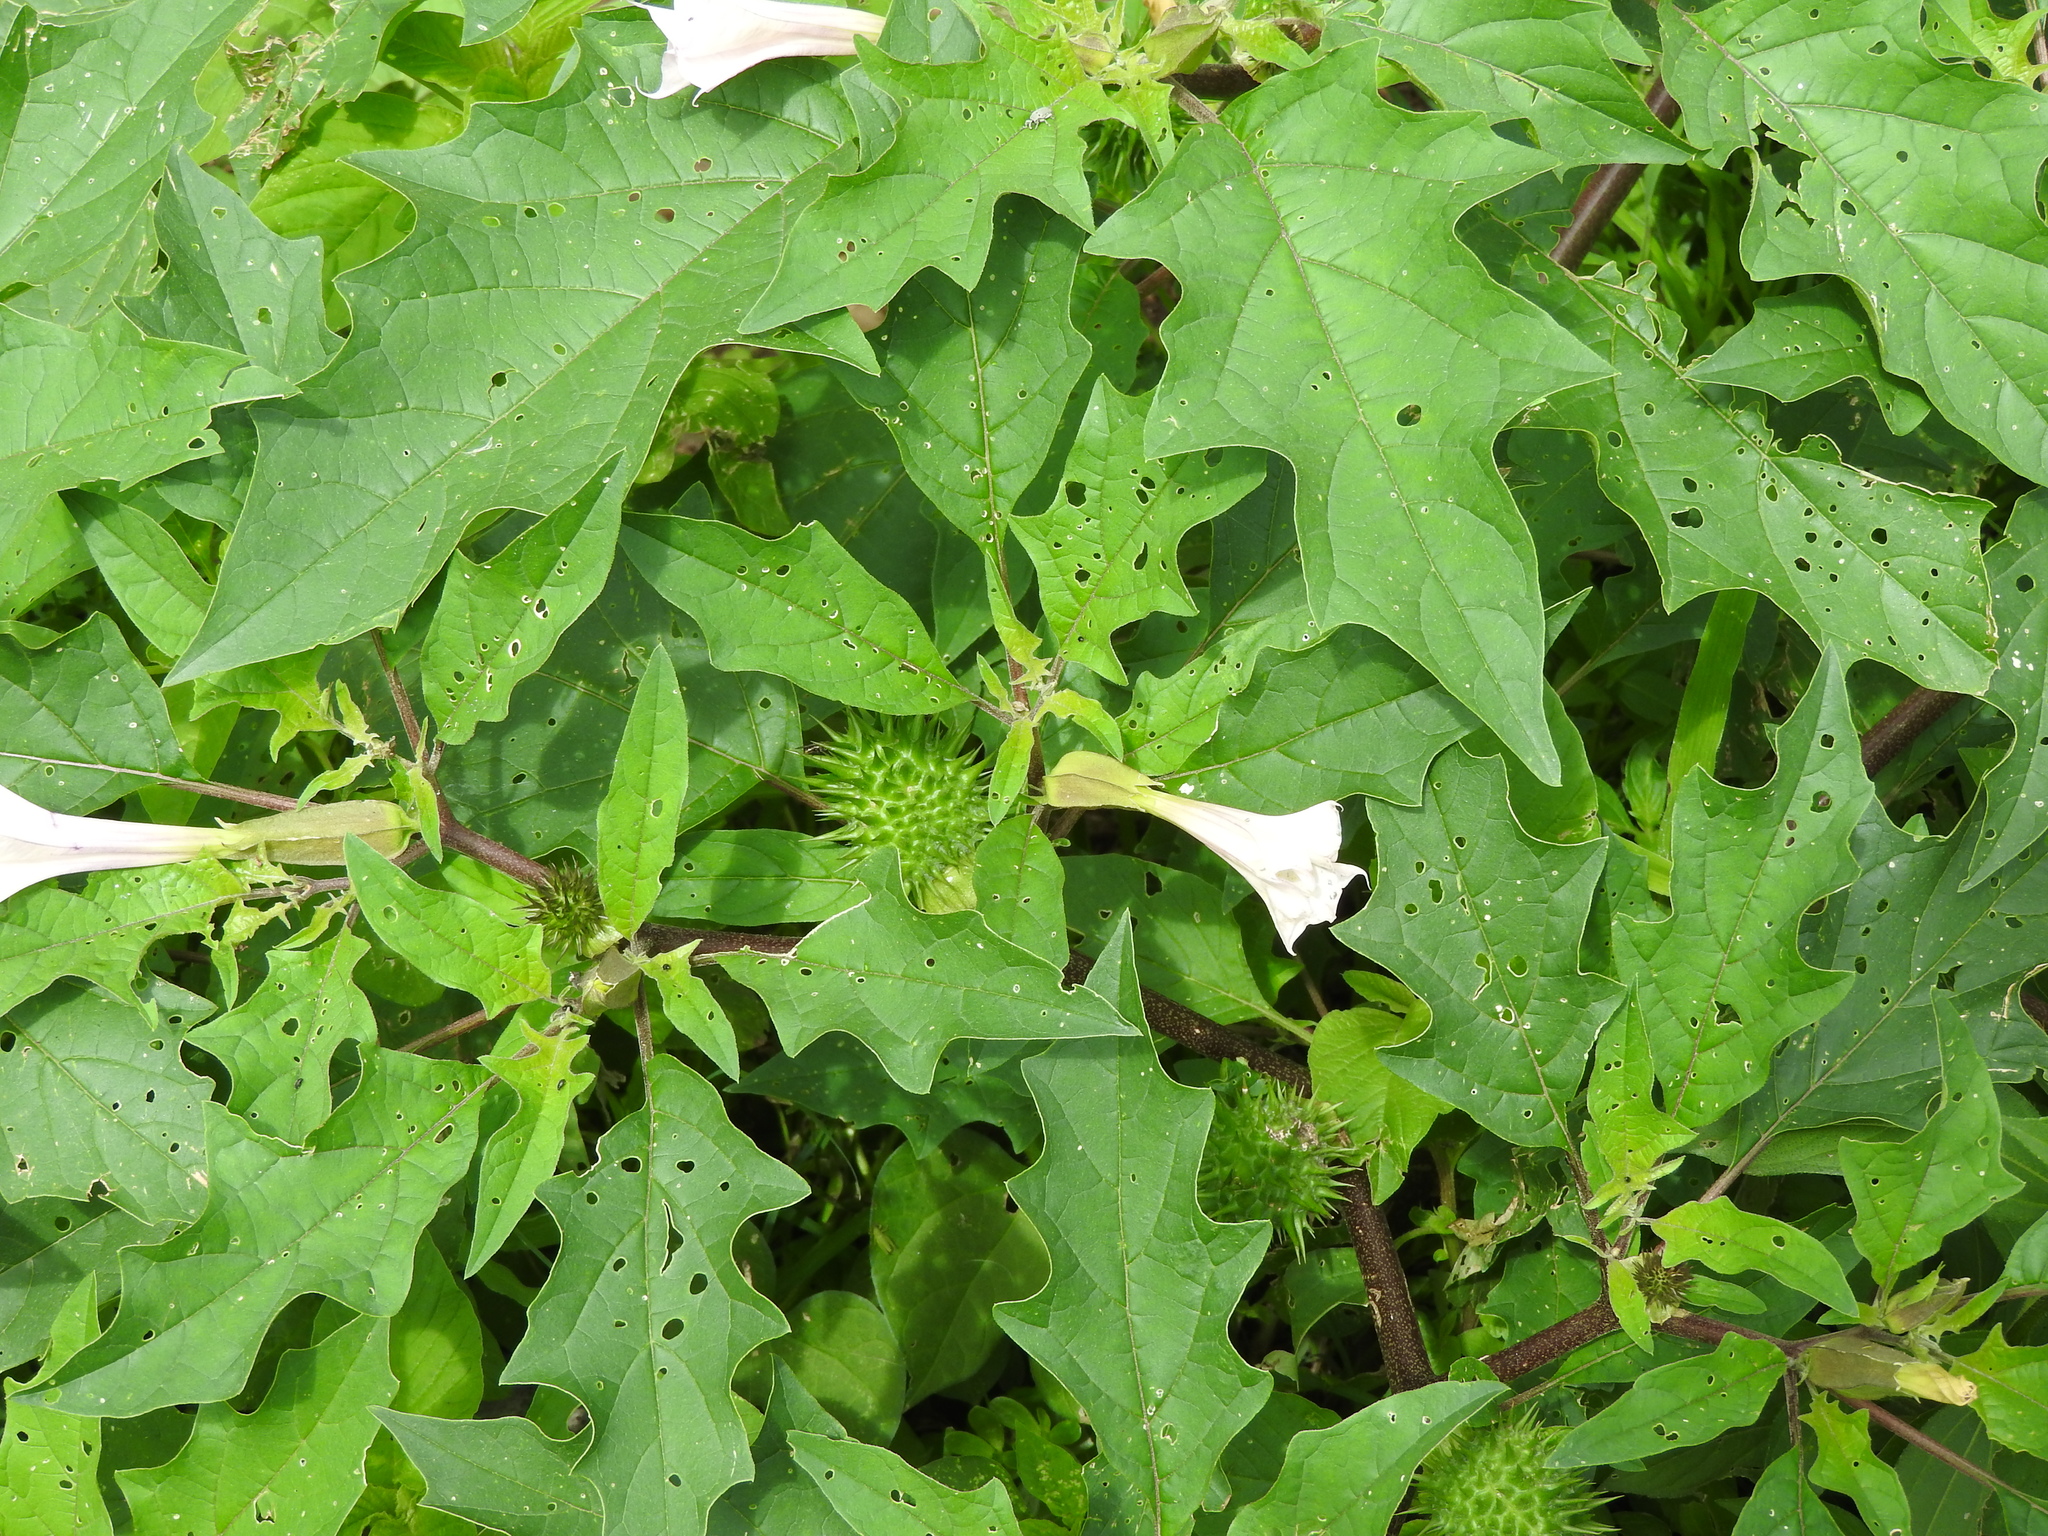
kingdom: Plantae
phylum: Tracheophyta
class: Magnoliopsida
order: Solanales
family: Solanaceae
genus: Datura
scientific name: Datura stramonium
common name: Thorn-apple
